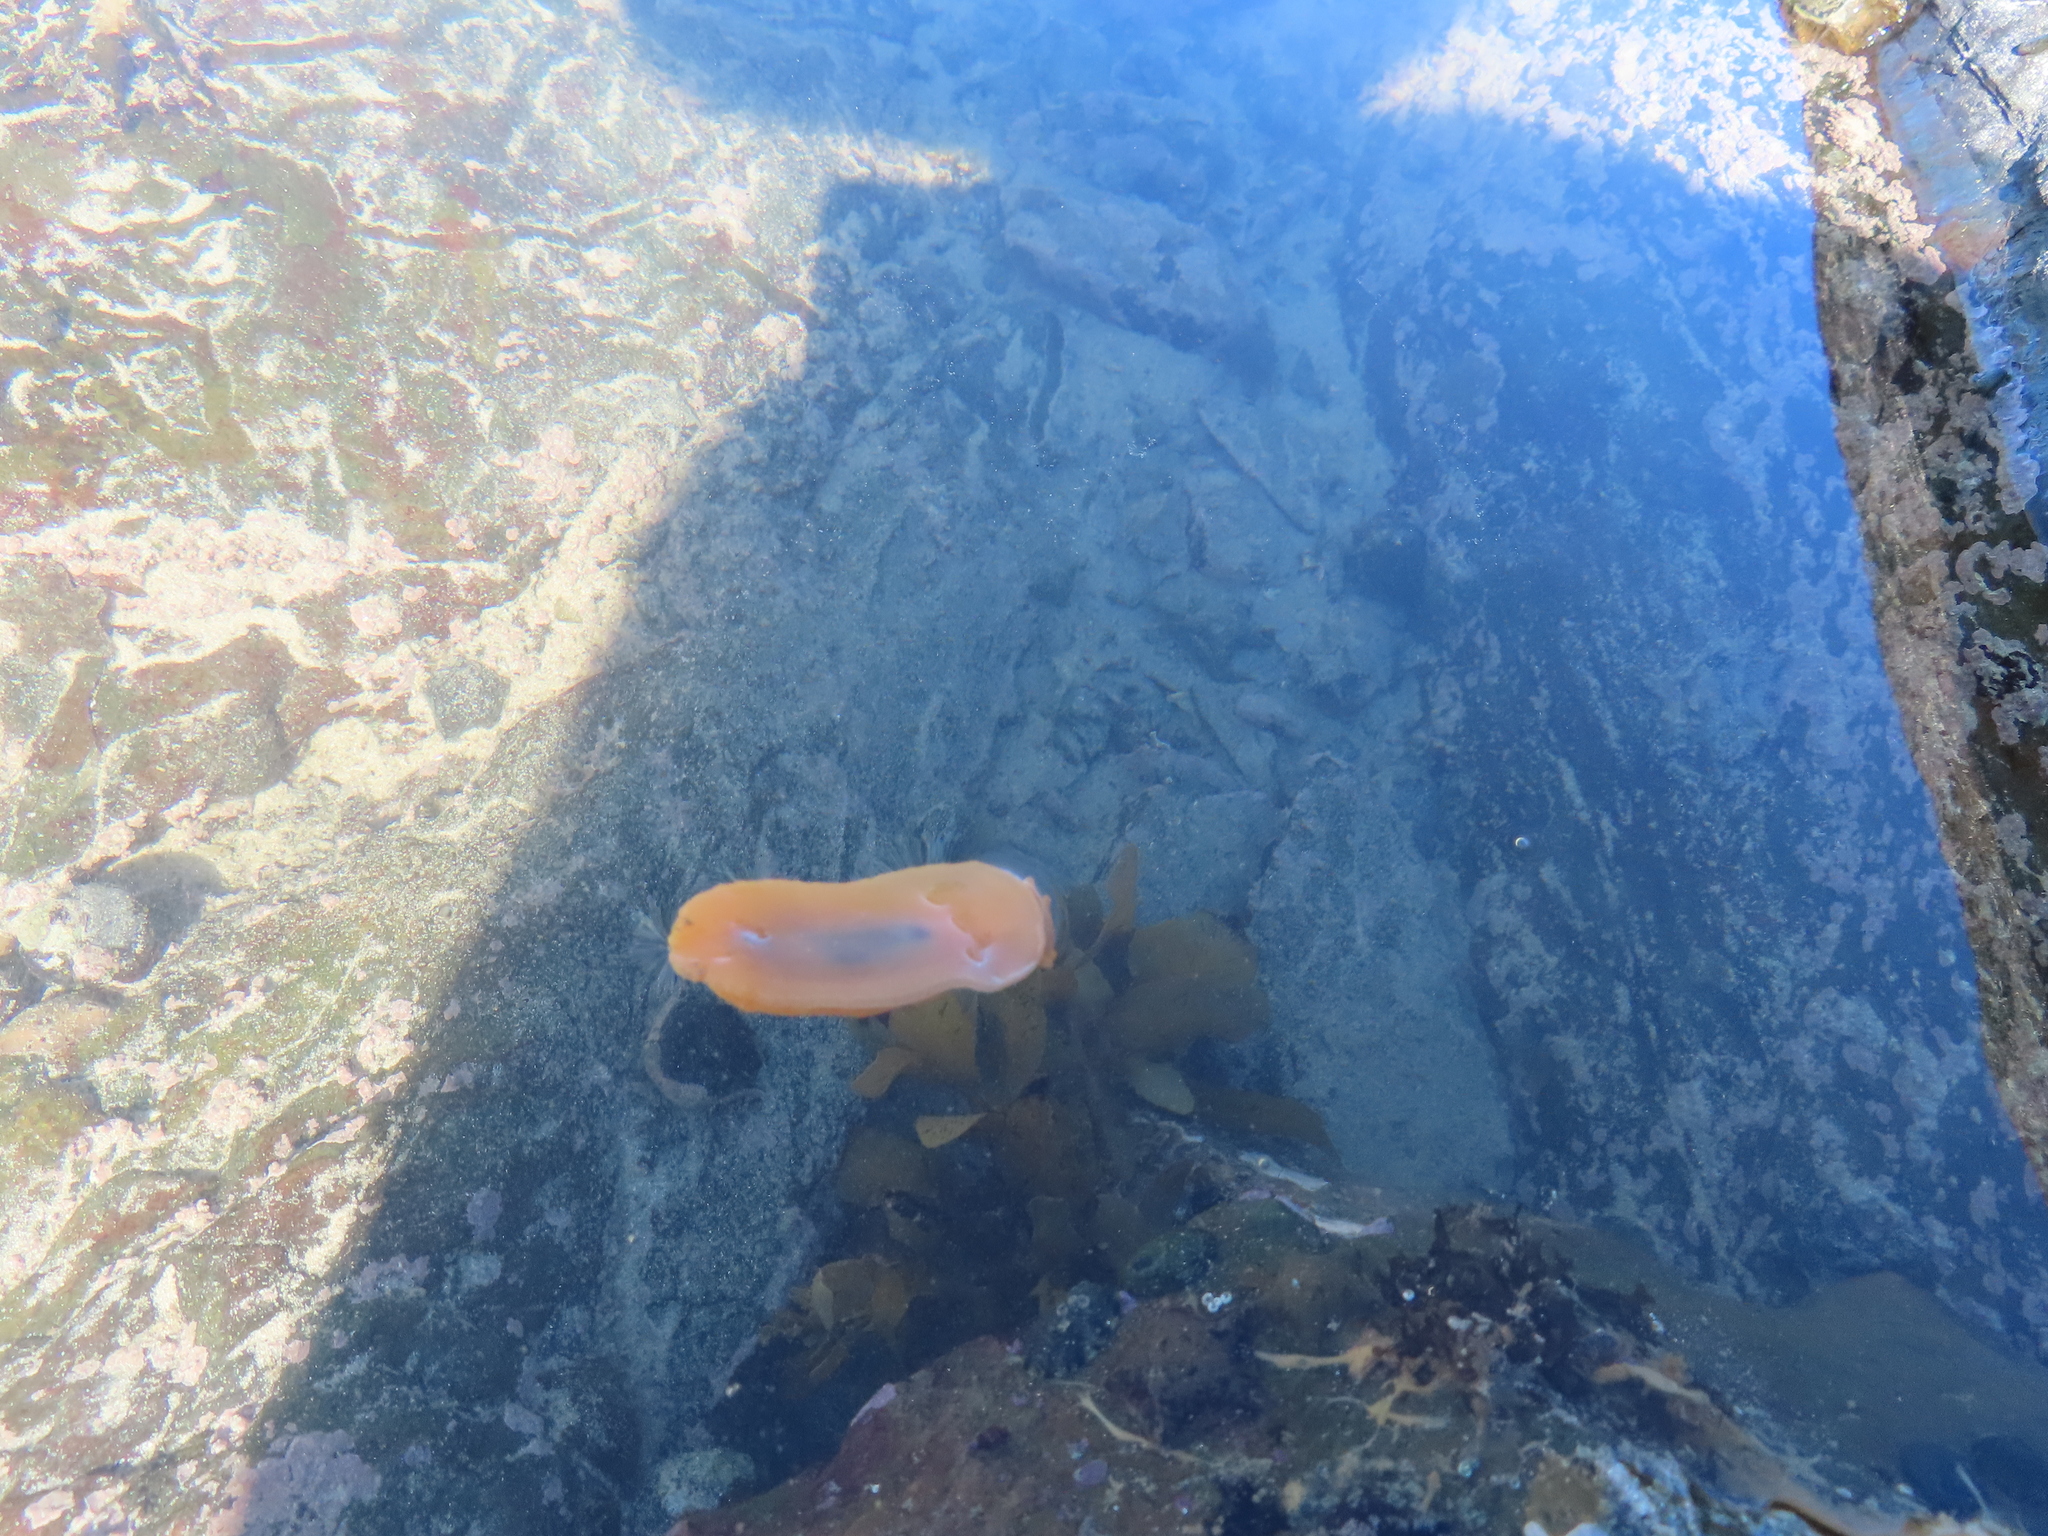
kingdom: Animalia
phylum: Mollusca
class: Gastropoda
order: Pleurobranchida
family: Pleurobranchidae
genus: Berthellina
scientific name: Berthellina granulata
